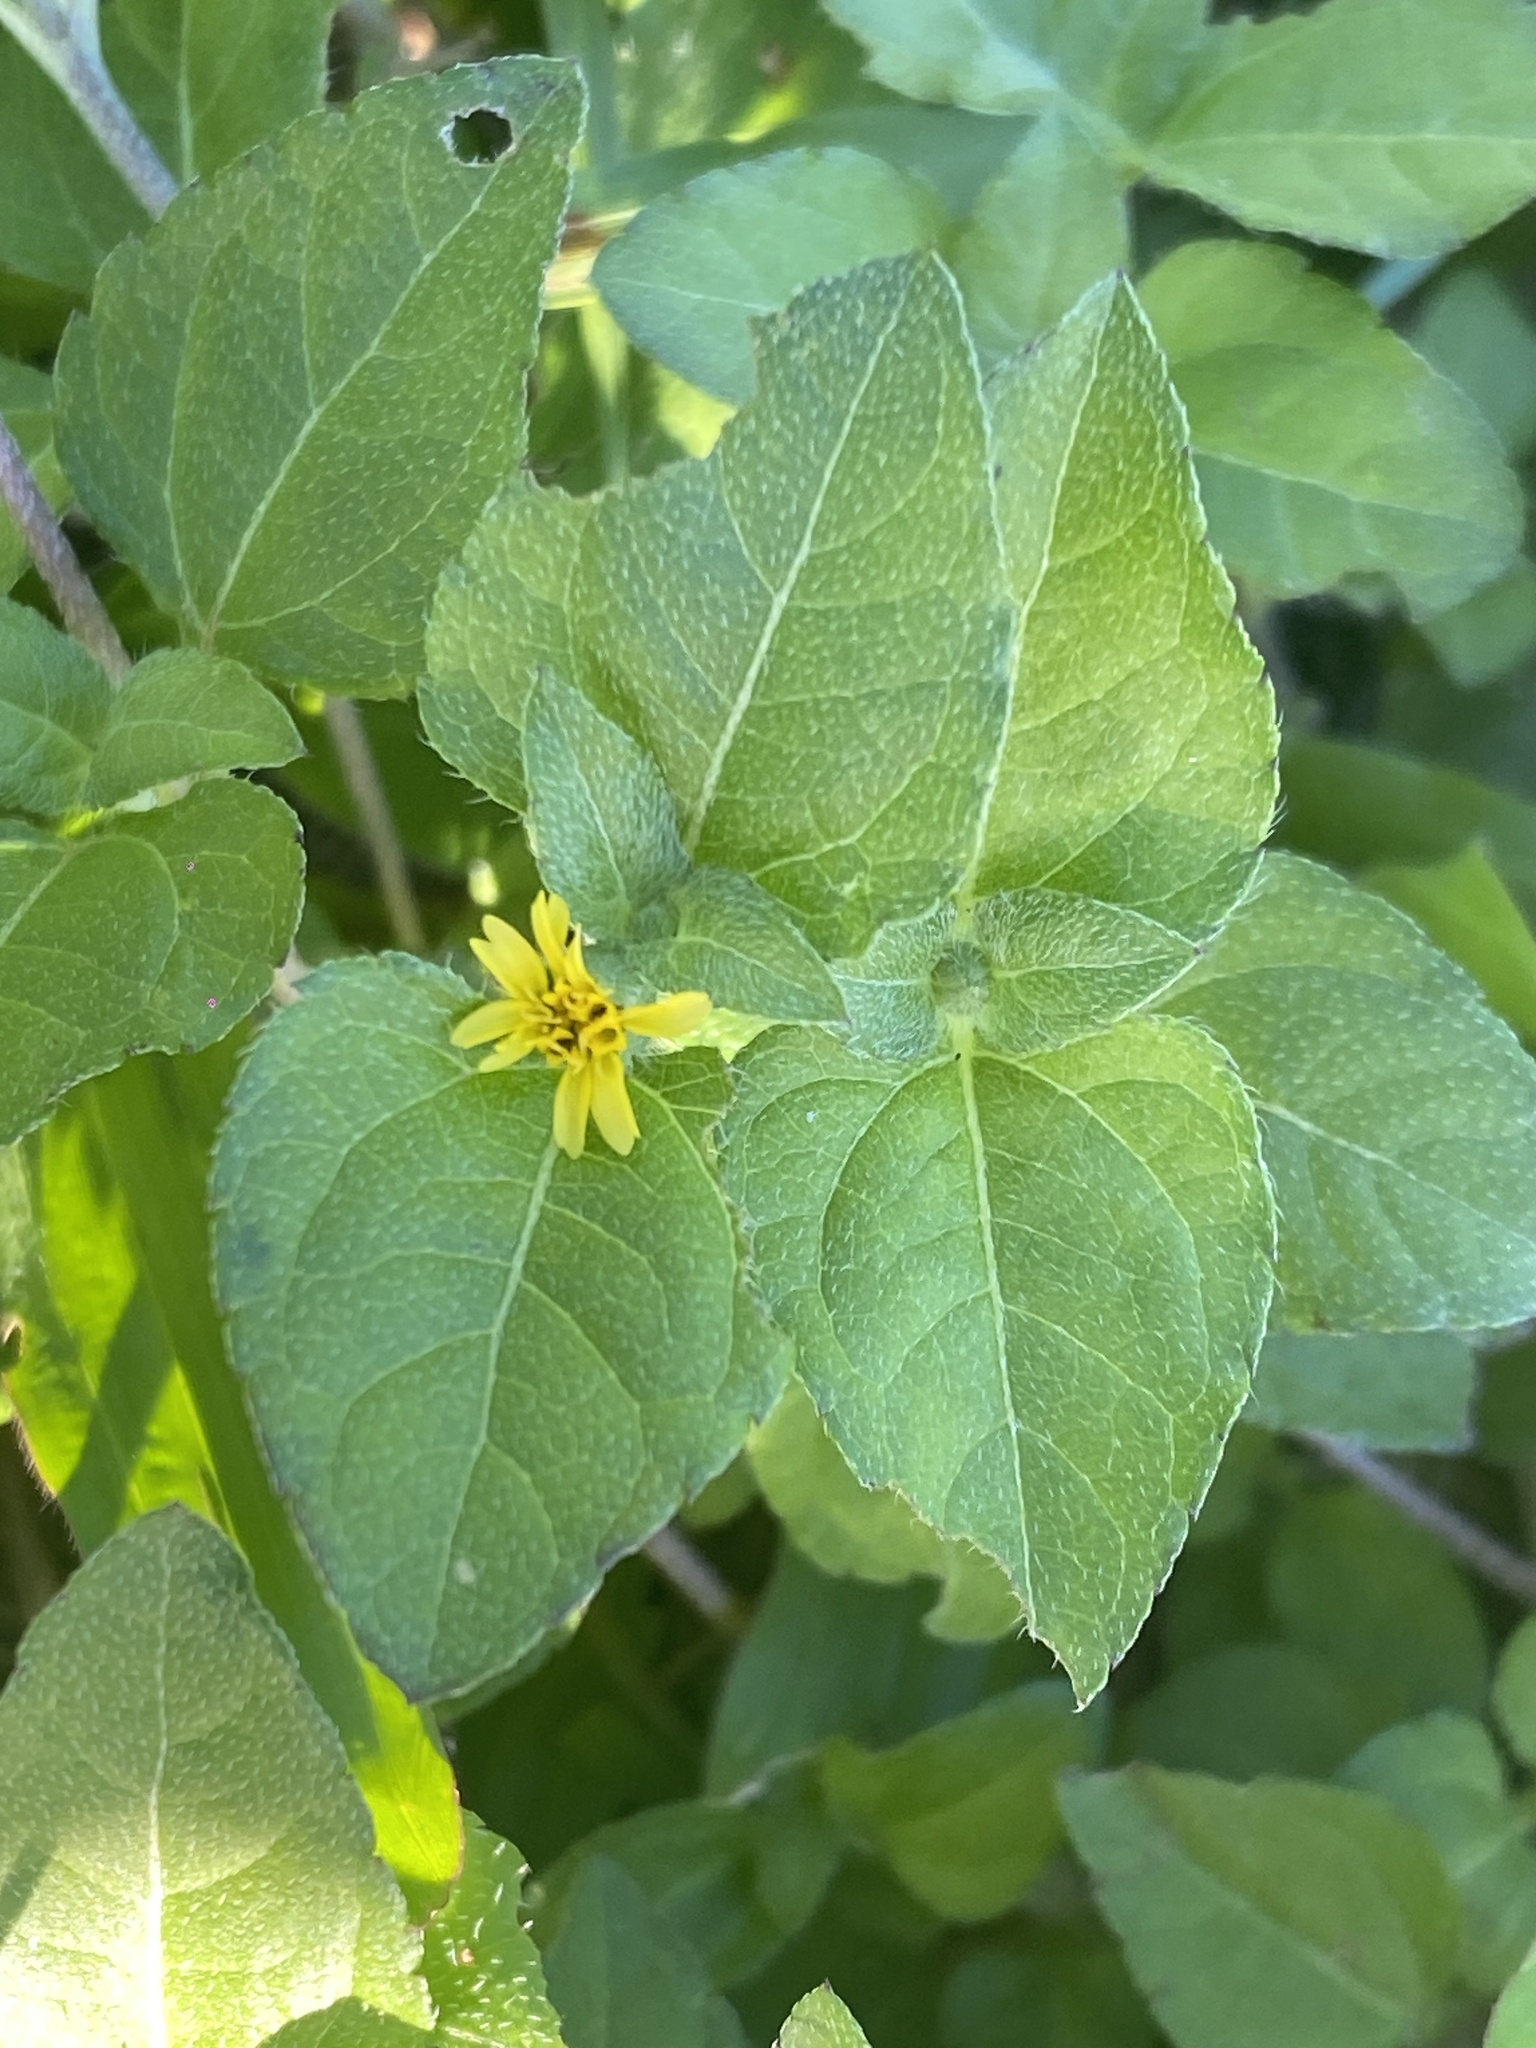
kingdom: Plantae
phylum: Tracheophyta
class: Magnoliopsida
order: Asterales
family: Asteraceae
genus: Calyptocarpus
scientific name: Calyptocarpus vialis
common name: Straggler daisy
